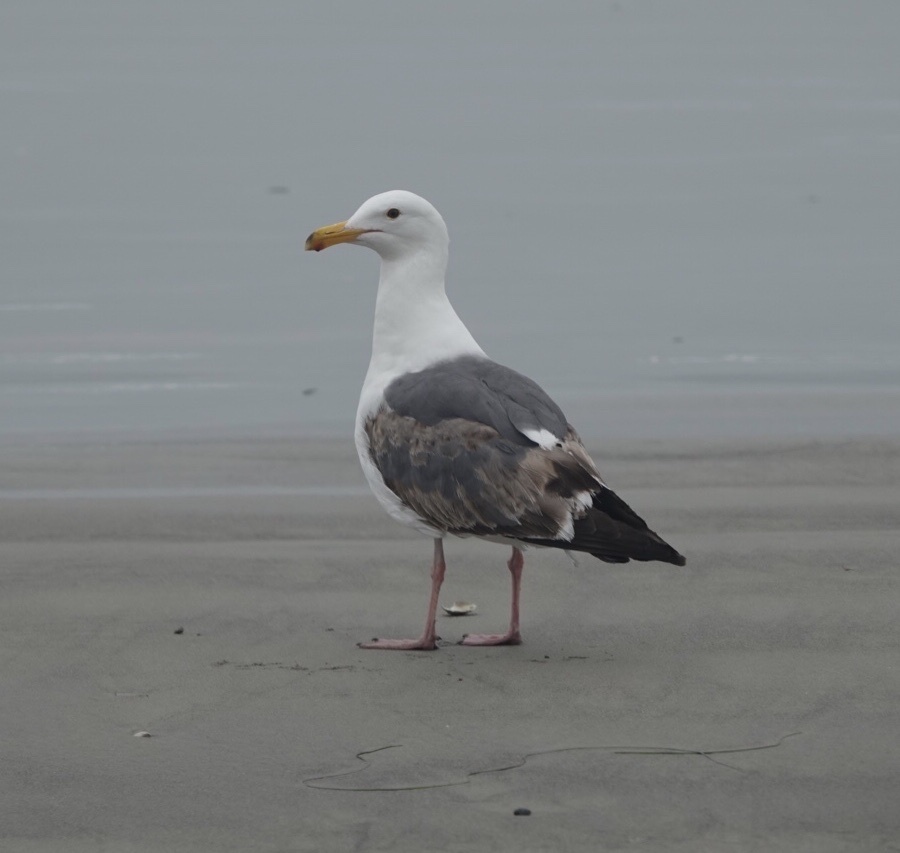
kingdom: Animalia
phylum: Chordata
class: Aves
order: Charadriiformes
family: Laridae
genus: Larus
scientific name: Larus occidentalis
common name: Western gull
